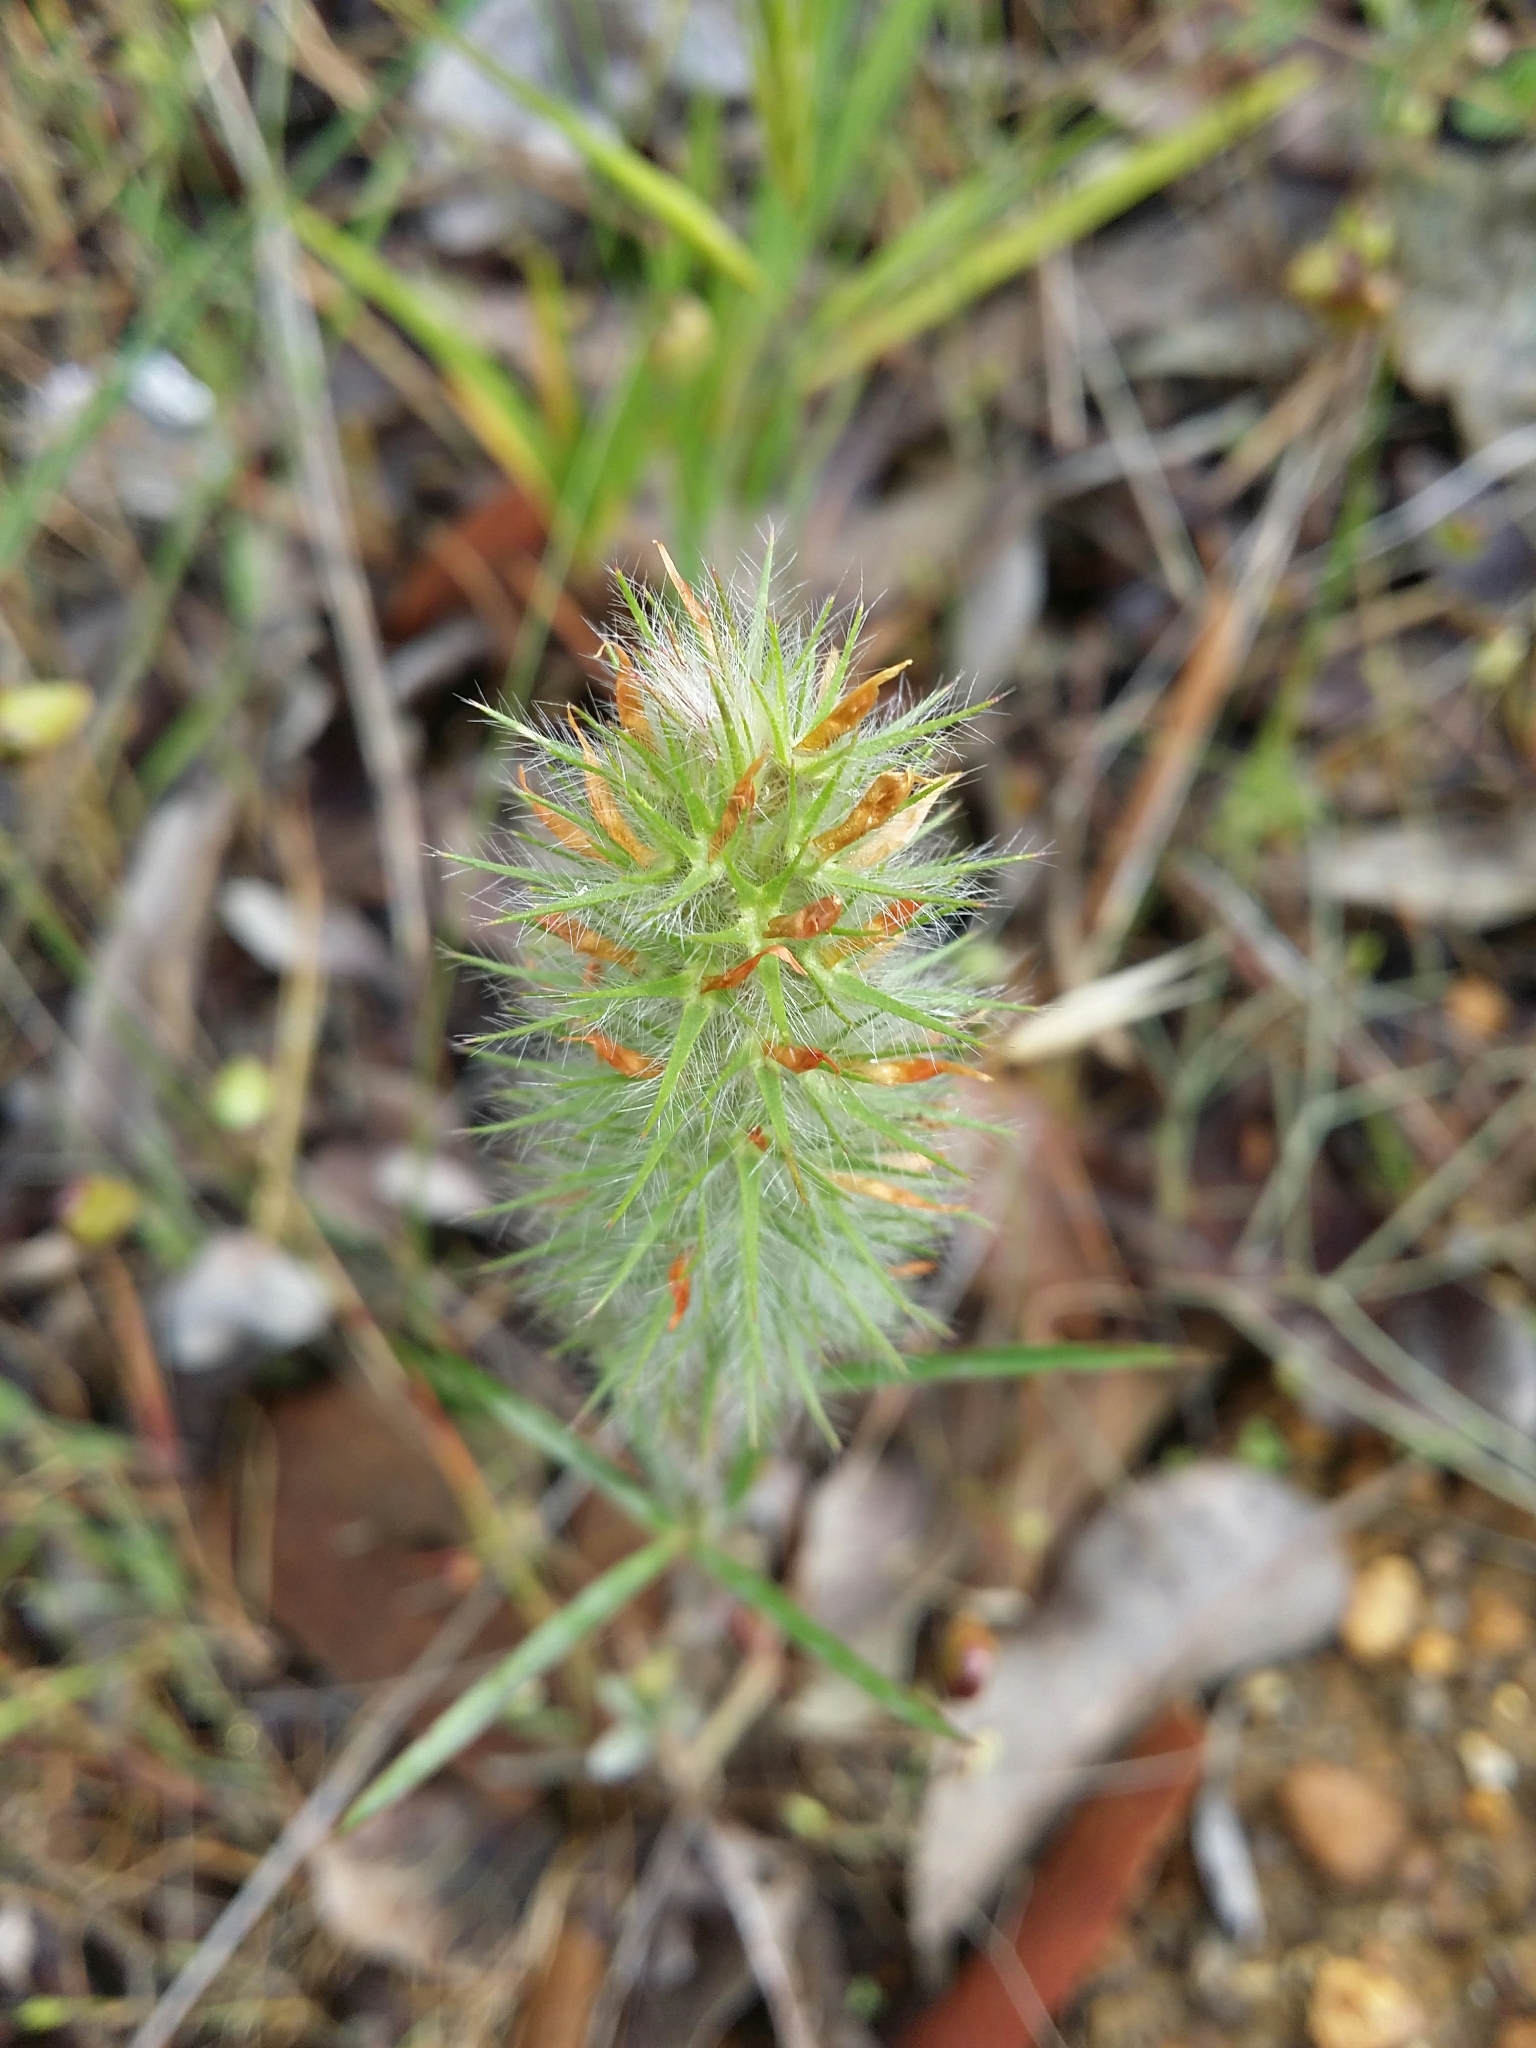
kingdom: Plantae
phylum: Tracheophyta
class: Magnoliopsida
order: Fabales
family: Fabaceae
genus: Trifolium
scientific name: Trifolium angustifolium
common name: Narrow clover
